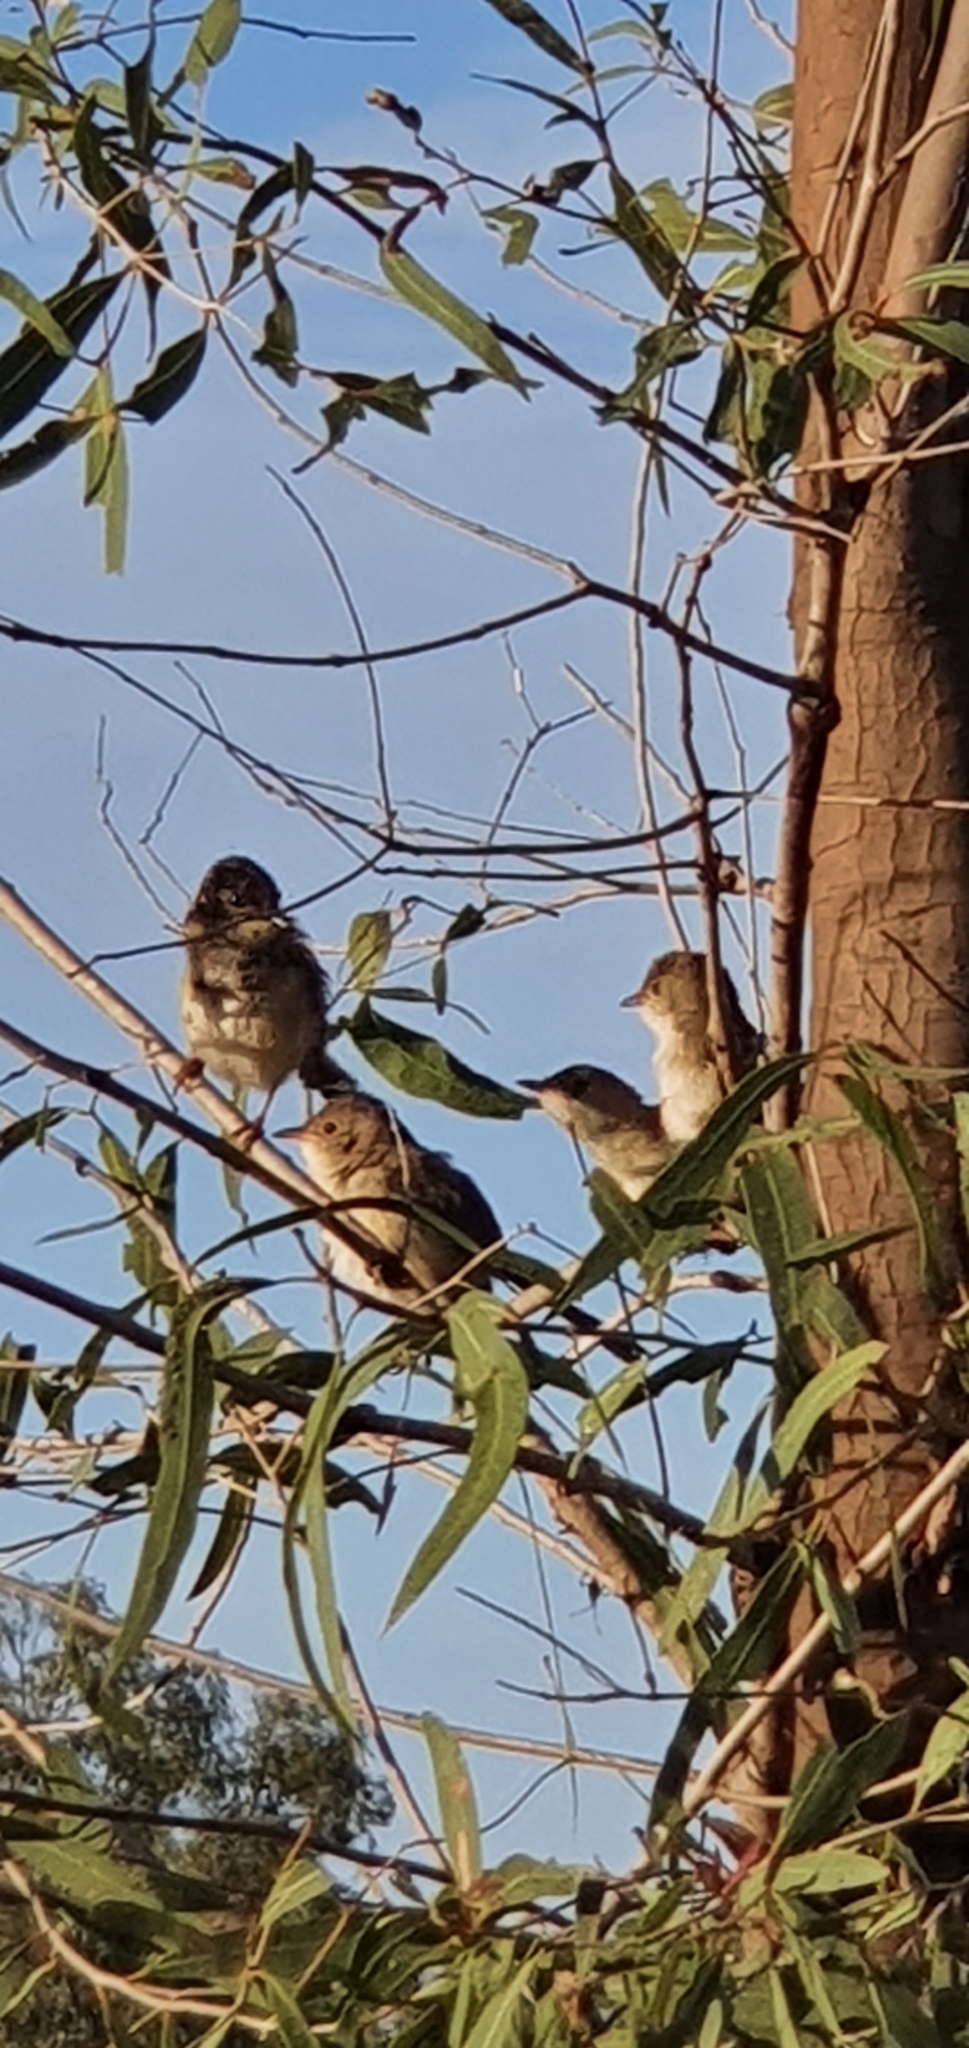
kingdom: Animalia
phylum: Chordata
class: Aves
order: Passeriformes
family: Maluridae
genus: Malurus
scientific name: Malurus melanocephalus
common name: Red-backed fairywren
